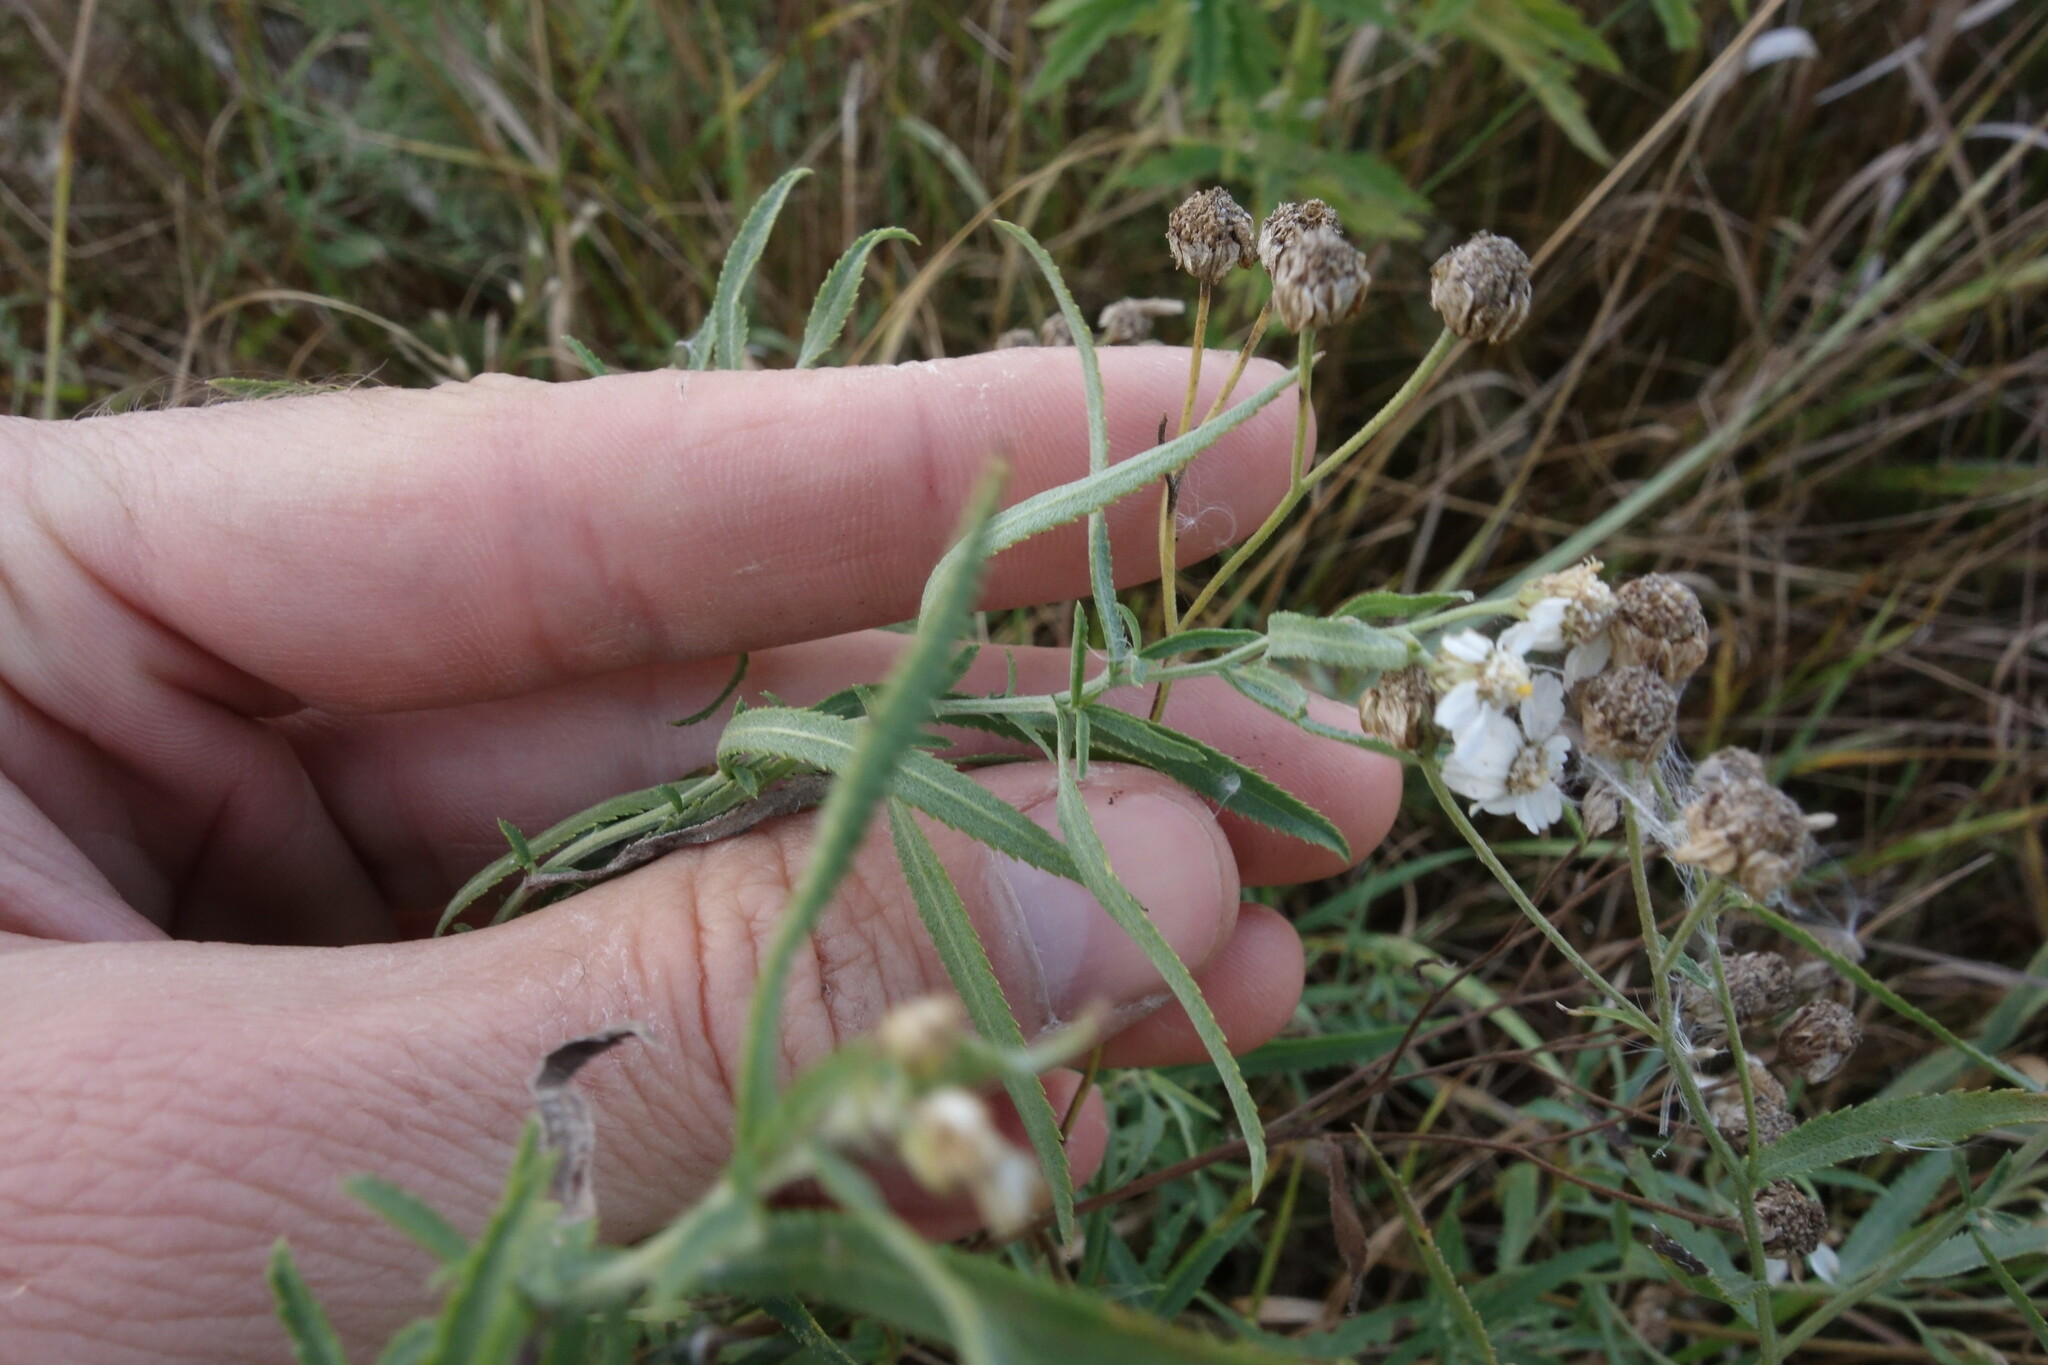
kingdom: Plantae
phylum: Tracheophyta
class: Magnoliopsida
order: Asterales
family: Asteraceae
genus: Achillea
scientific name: Achillea salicifolia
